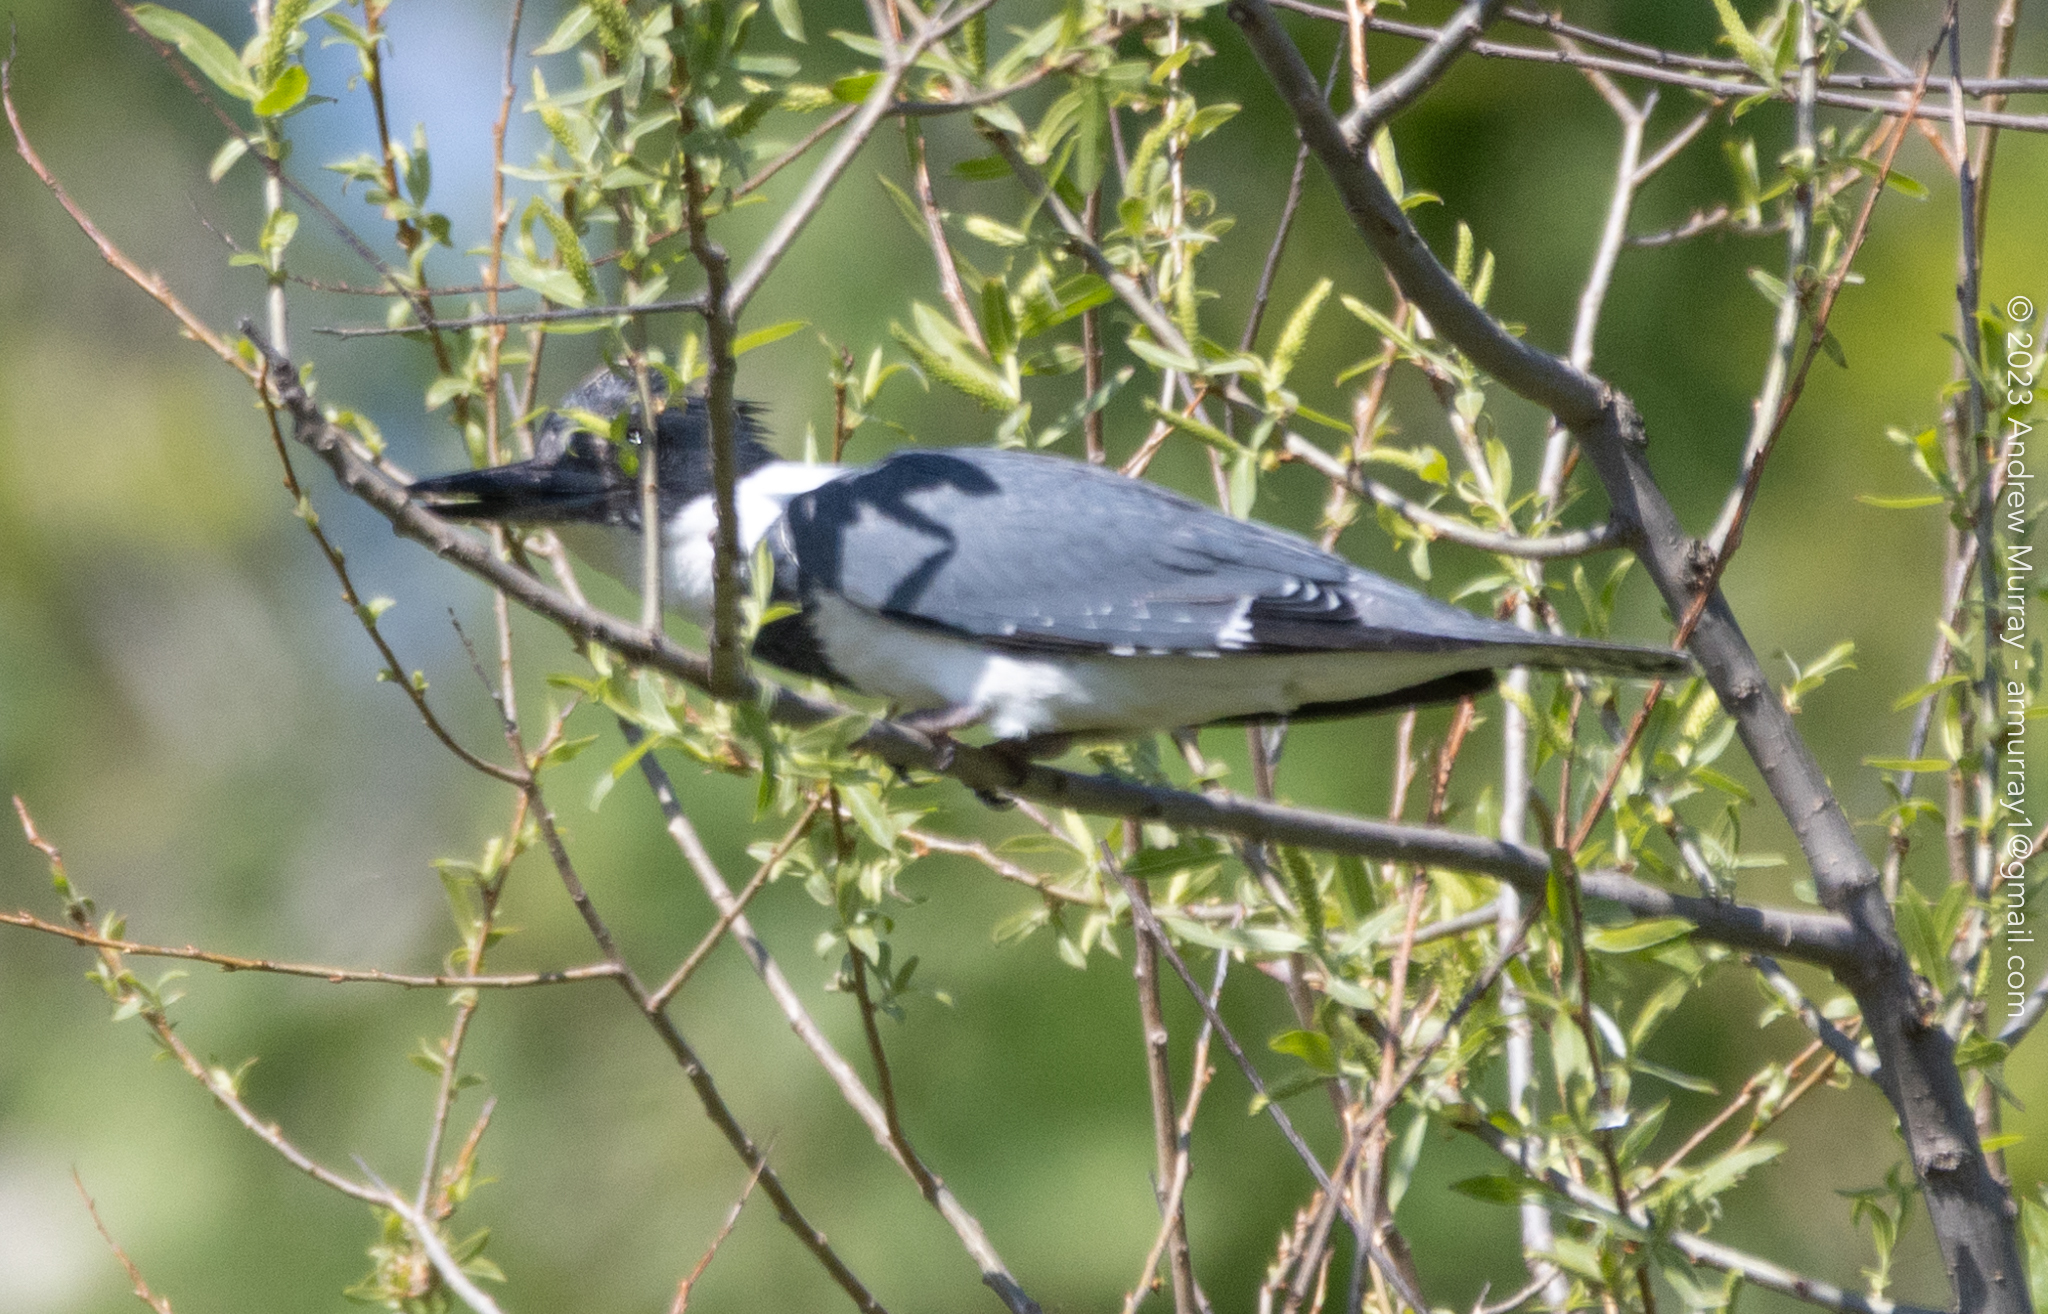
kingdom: Animalia
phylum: Chordata
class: Aves
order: Coraciiformes
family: Alcedinidae
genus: Megaceryle
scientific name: Megaceryle alcyon
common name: Belted kingfisher
